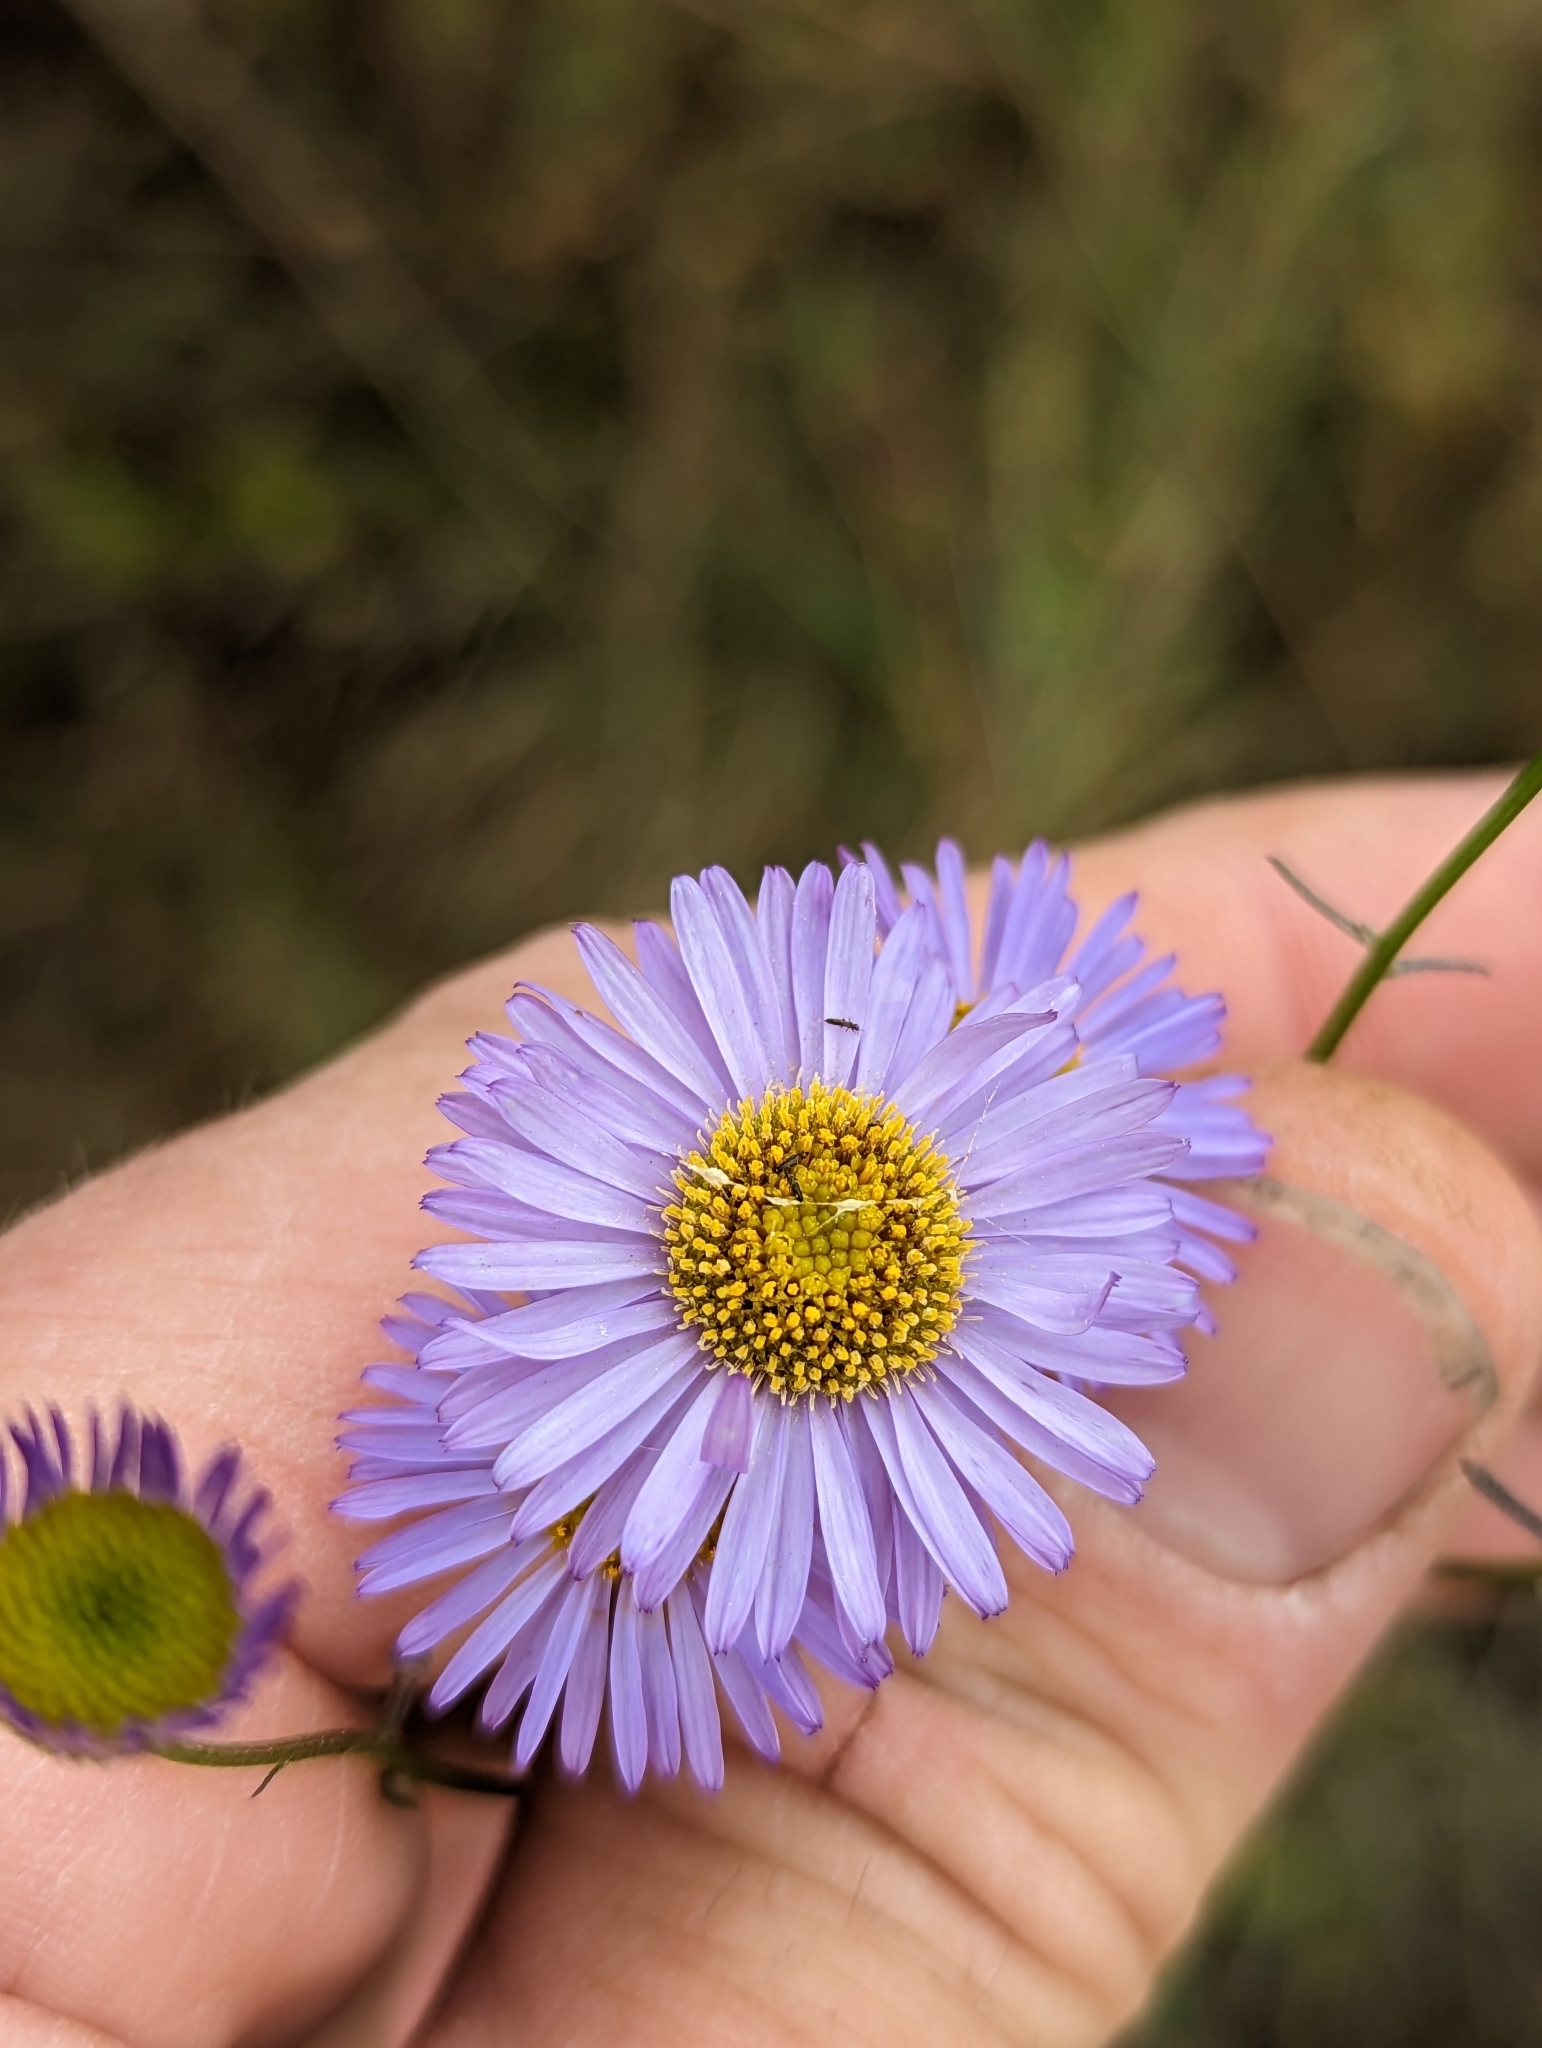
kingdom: Plantae
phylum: Tracheophyta
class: Magnoliopsida
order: Asterales
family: Asteraceae
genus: Erigeron
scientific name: Erigeron foliosus
